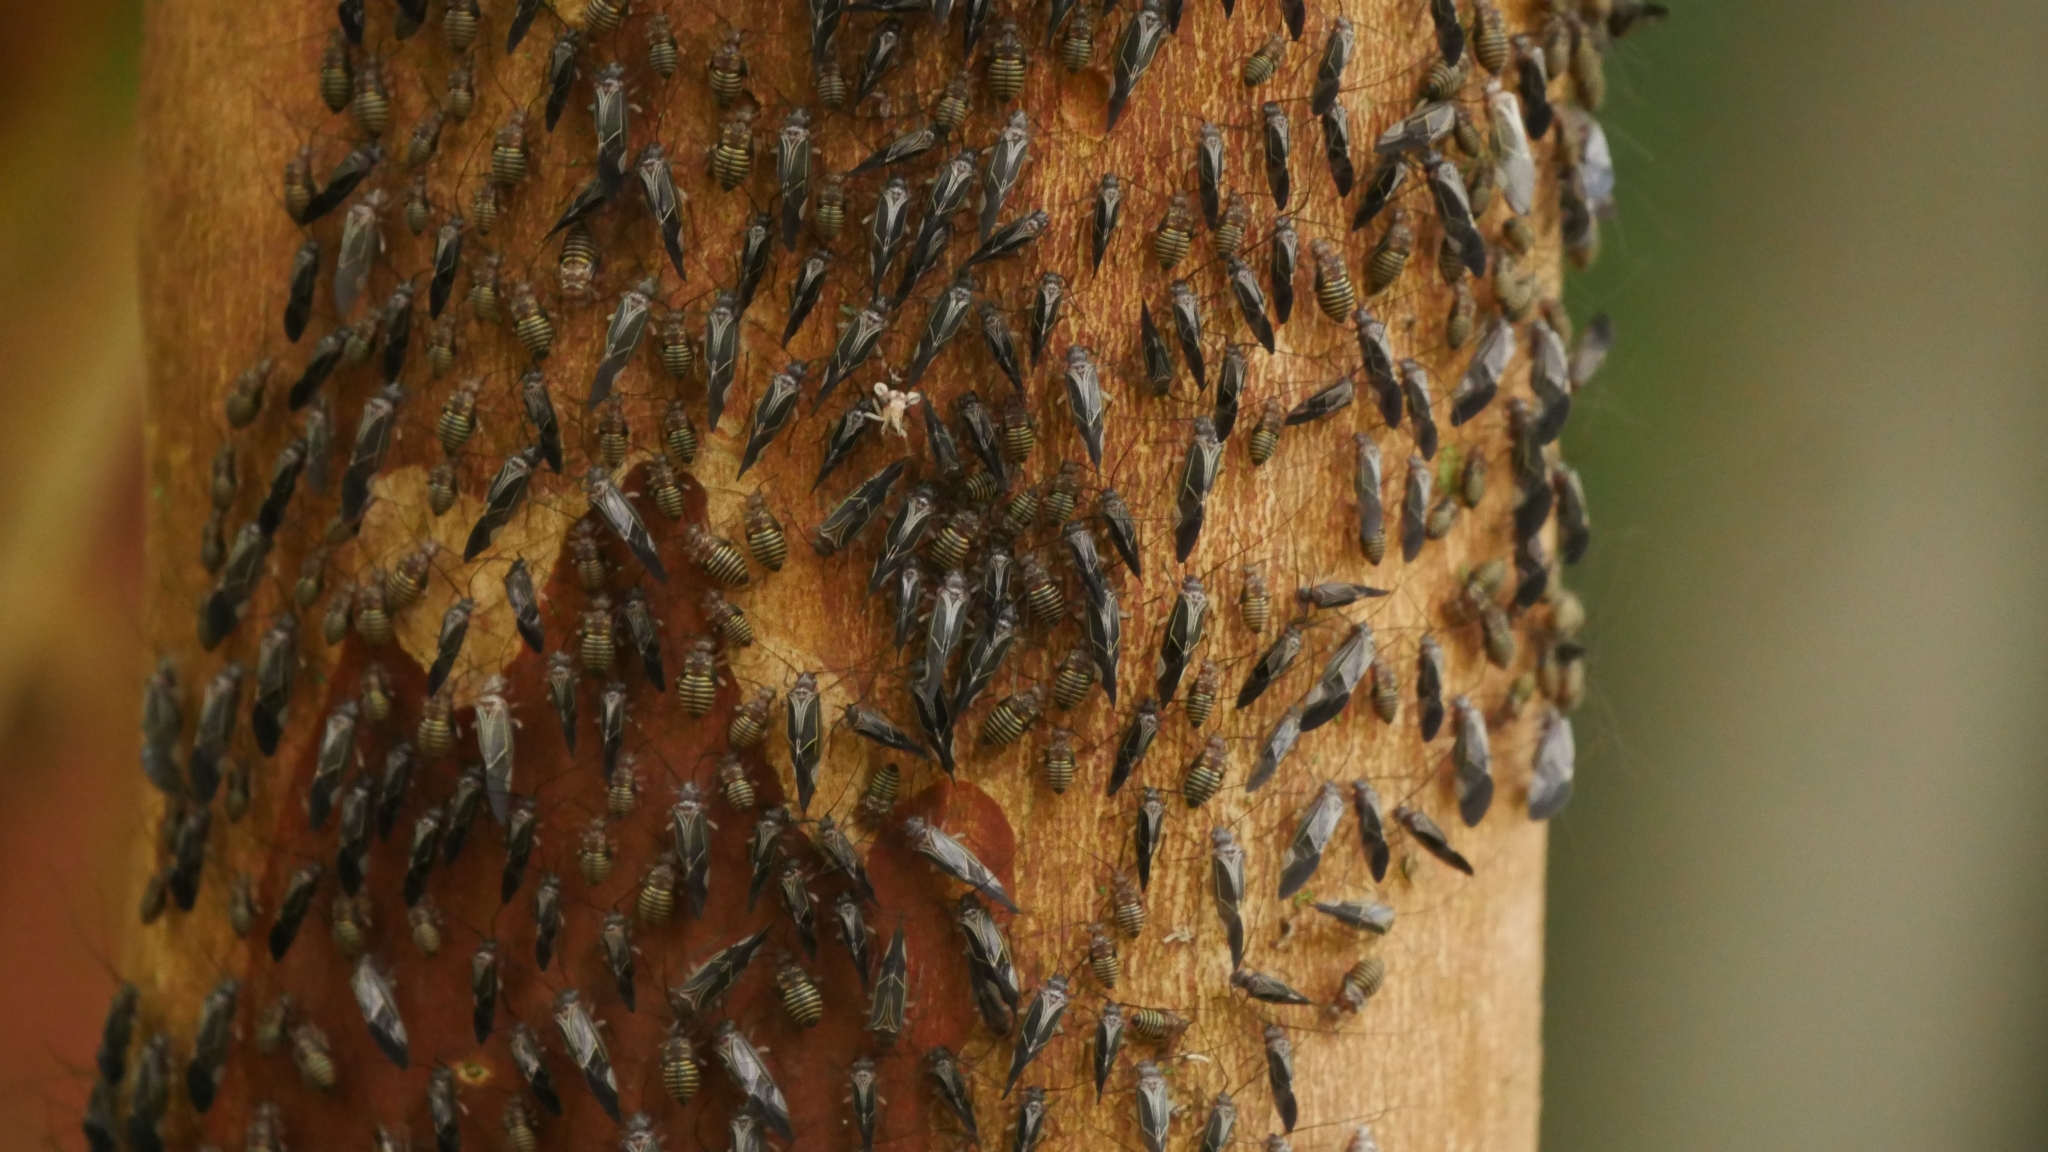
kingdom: Animalia
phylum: Arthropoda
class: Insecta
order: Psocodea
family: Psocidae
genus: Cerastipsocus
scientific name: Cerastipsocus venosus
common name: Tree cattle
